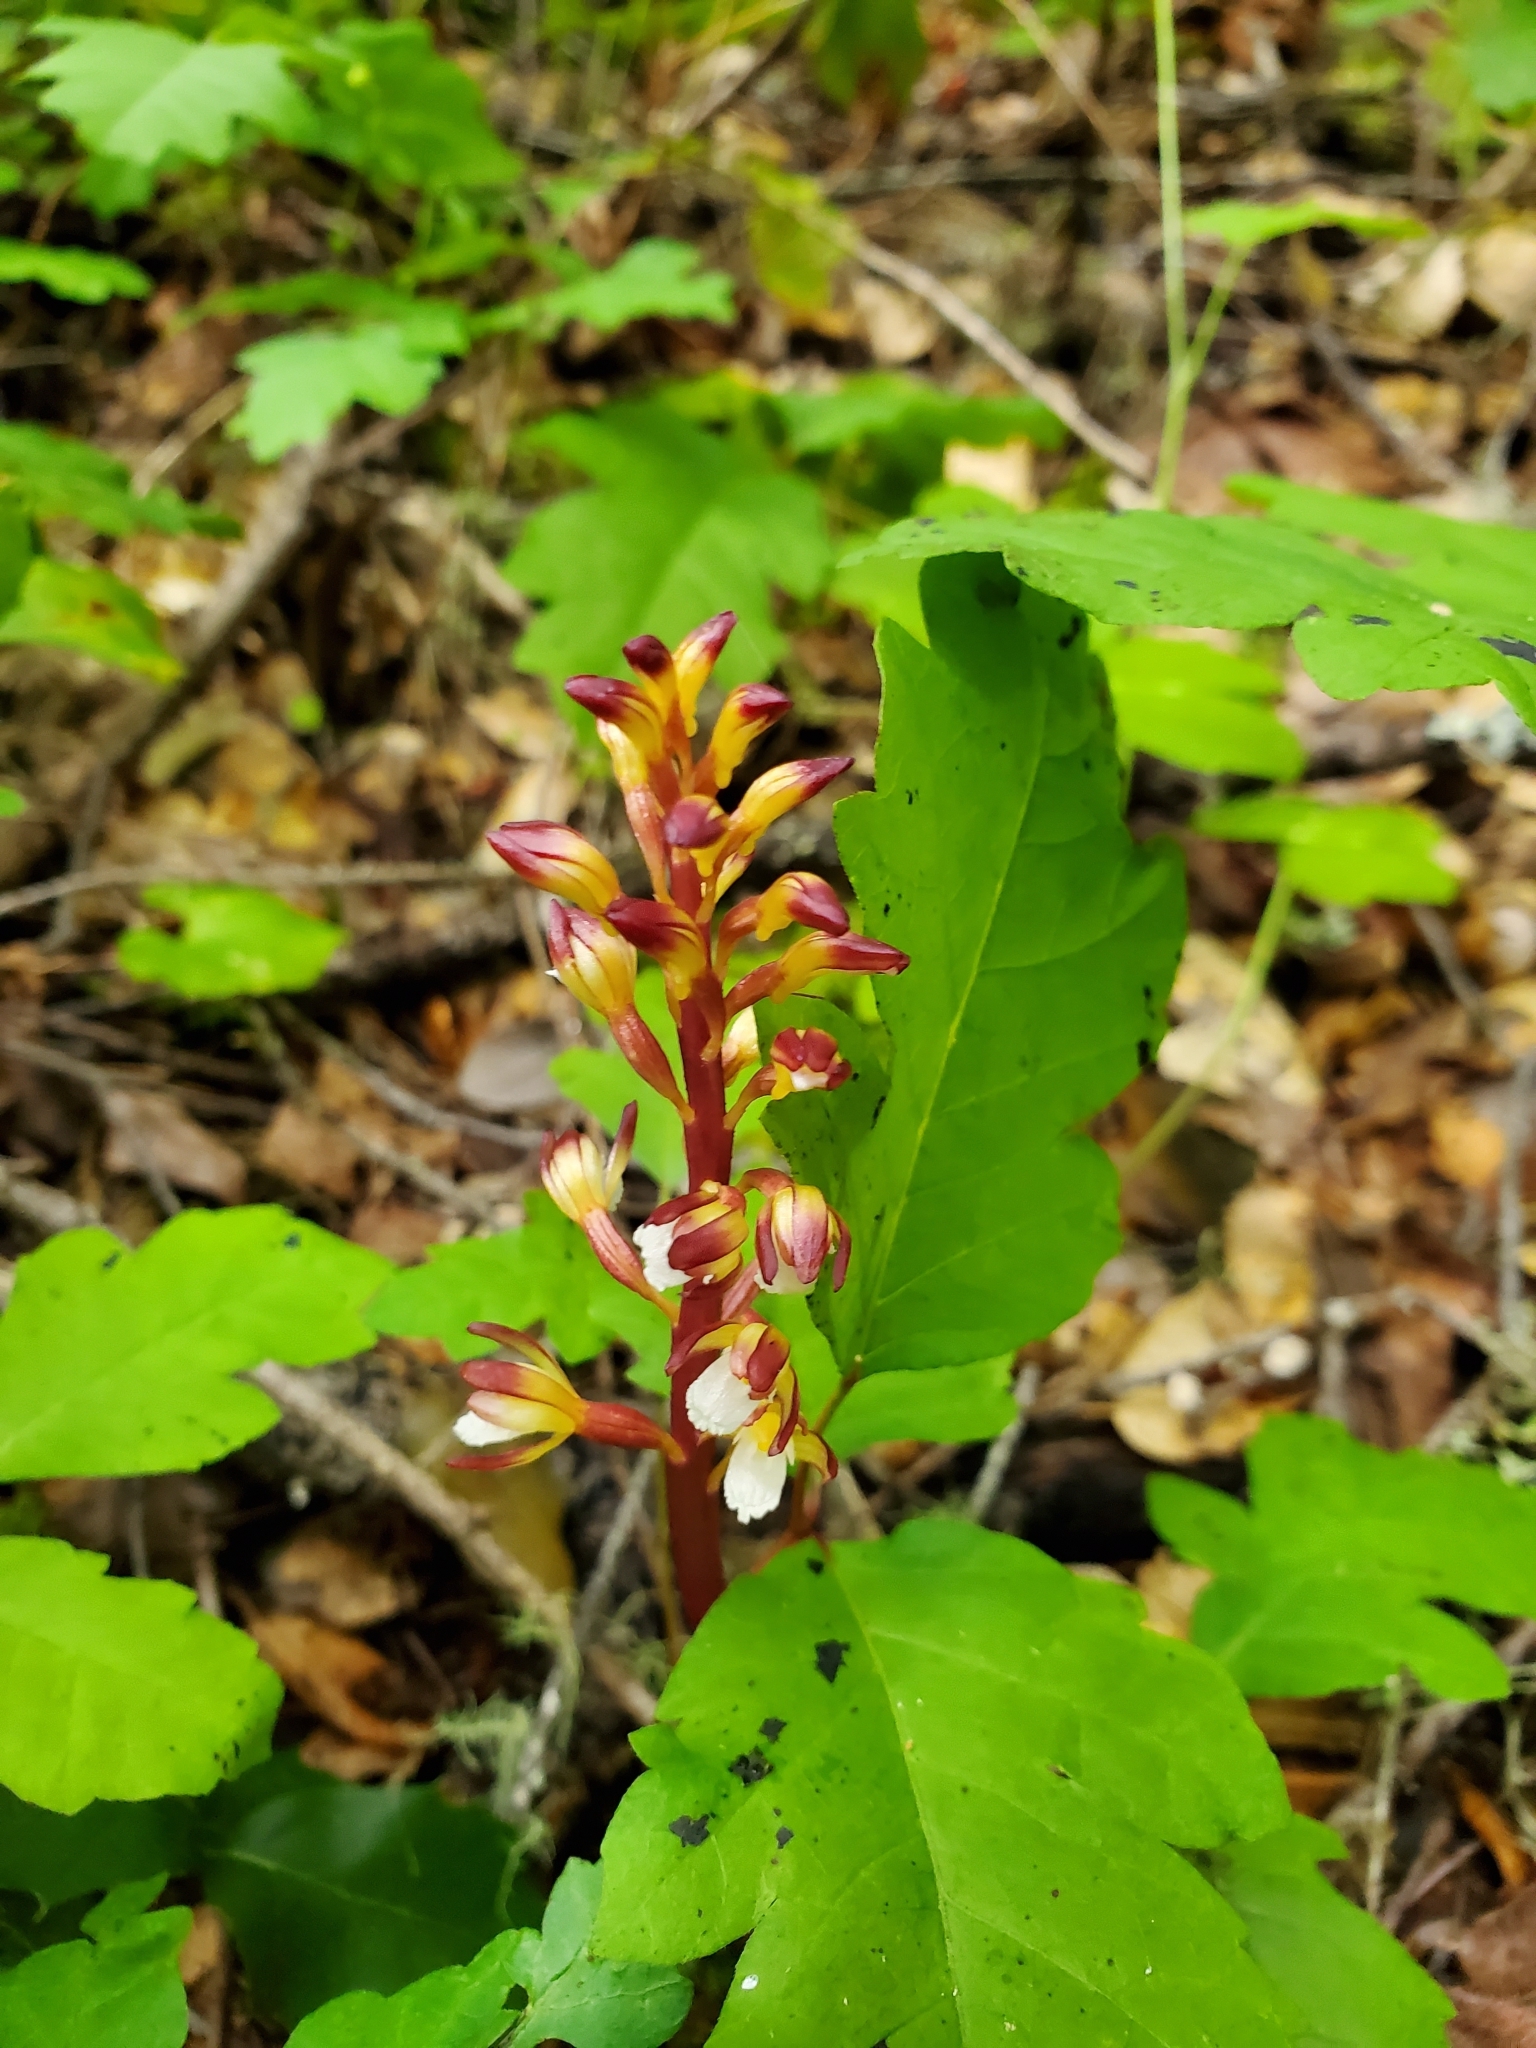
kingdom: Plantae
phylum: Tracheophyta
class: Liliopsida
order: Asparagales
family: Orchidaceae
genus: Corallorhiza
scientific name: Corallorhiza maculata
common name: Spotted coralroot
